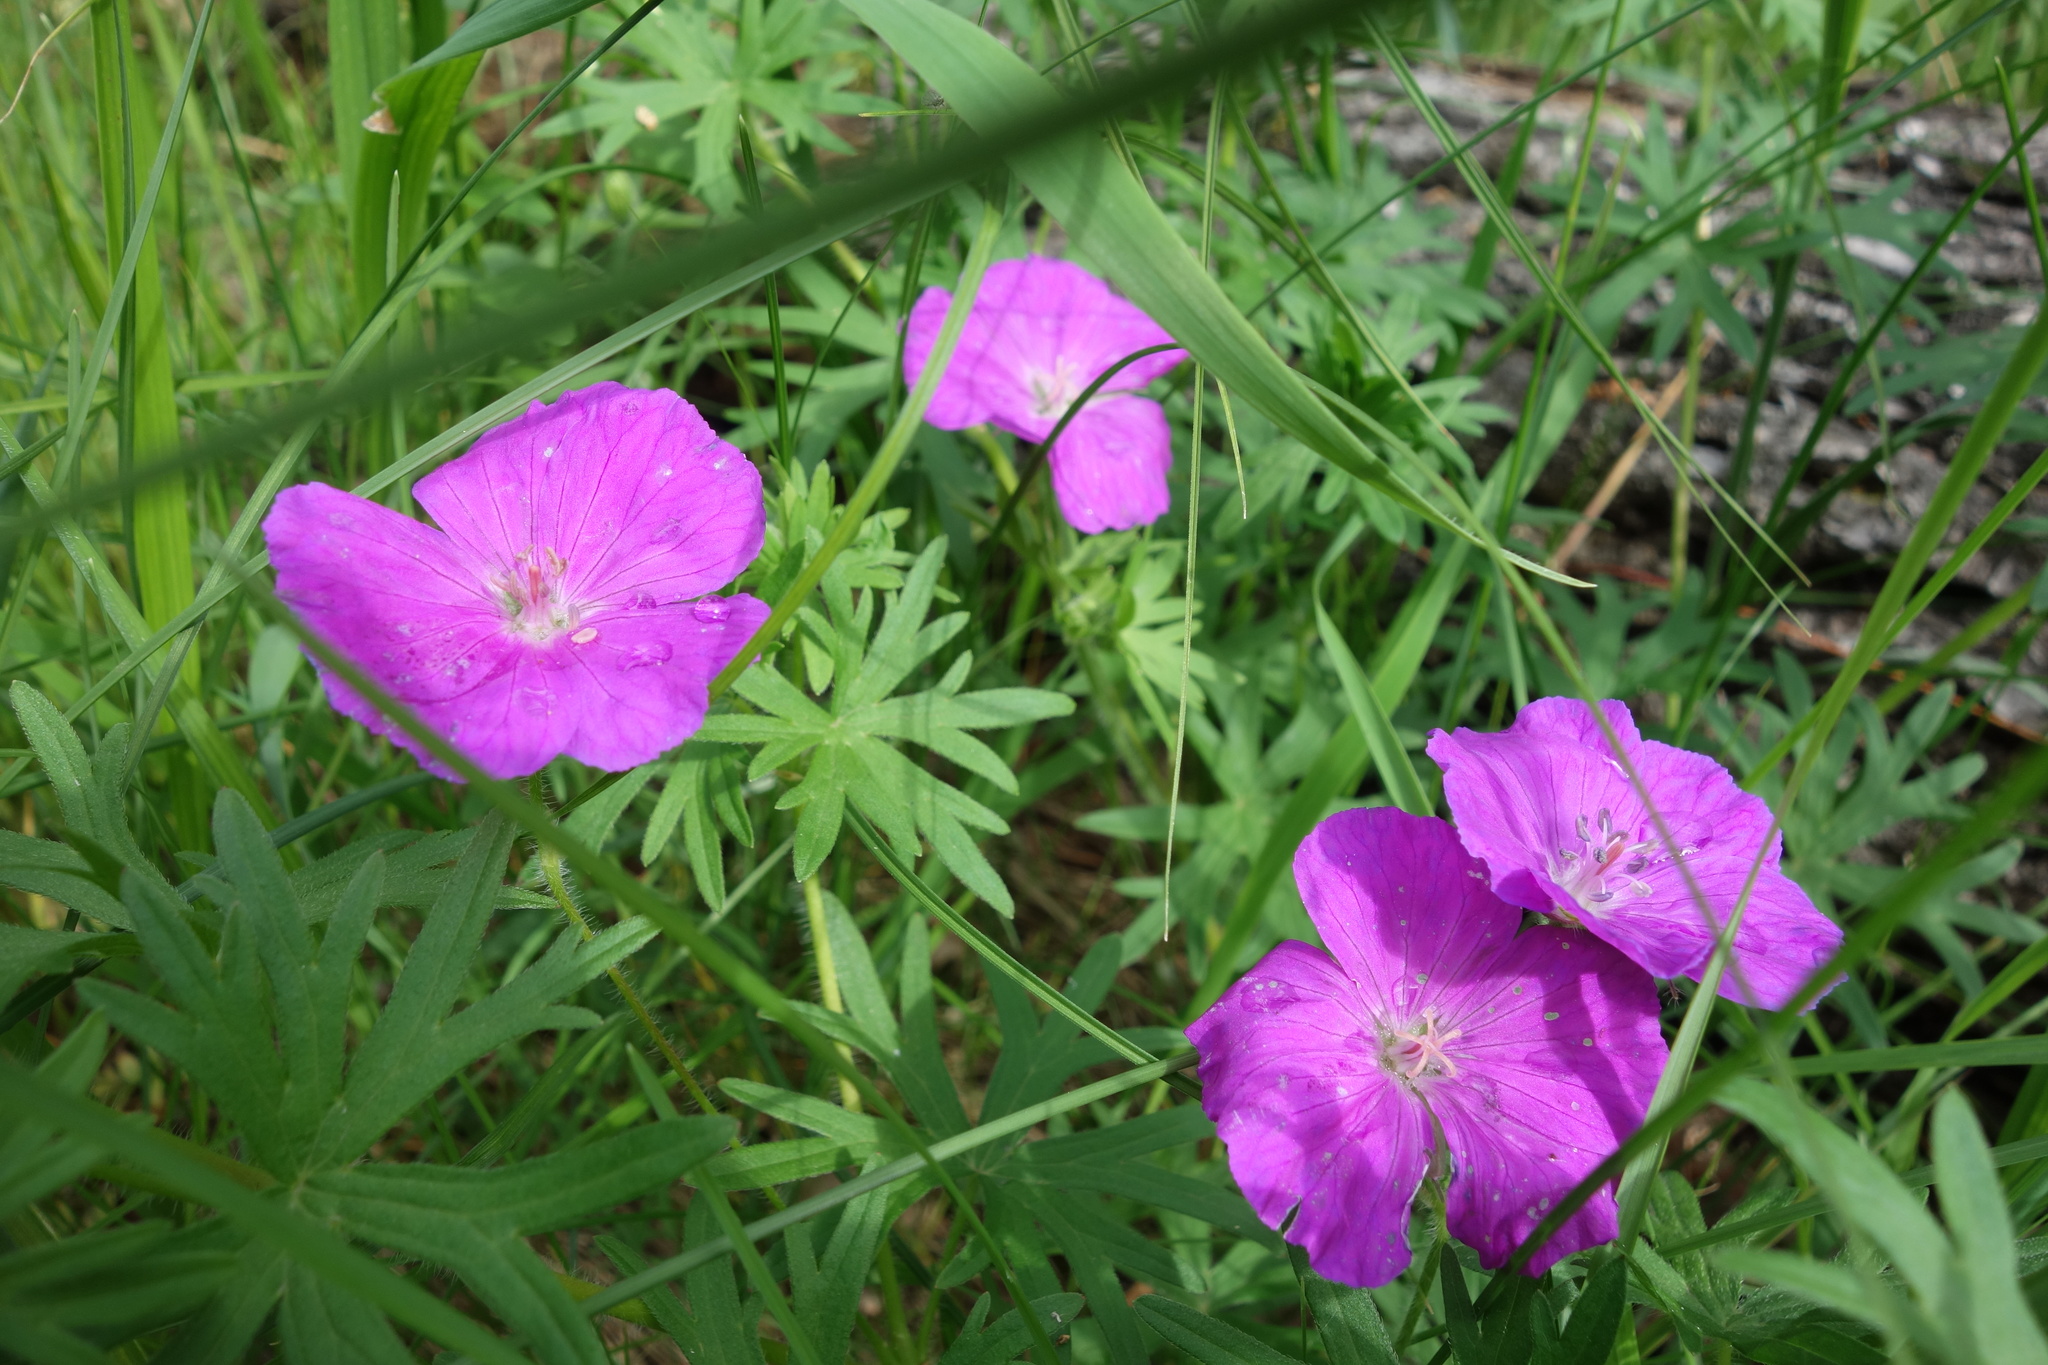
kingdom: Plantae
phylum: Tracheophyta
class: Magnoliopsida
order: Geraniales
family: Geraniaceae
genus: Geranium
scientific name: Geranium sanguineum
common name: Bloody crane's-bill
